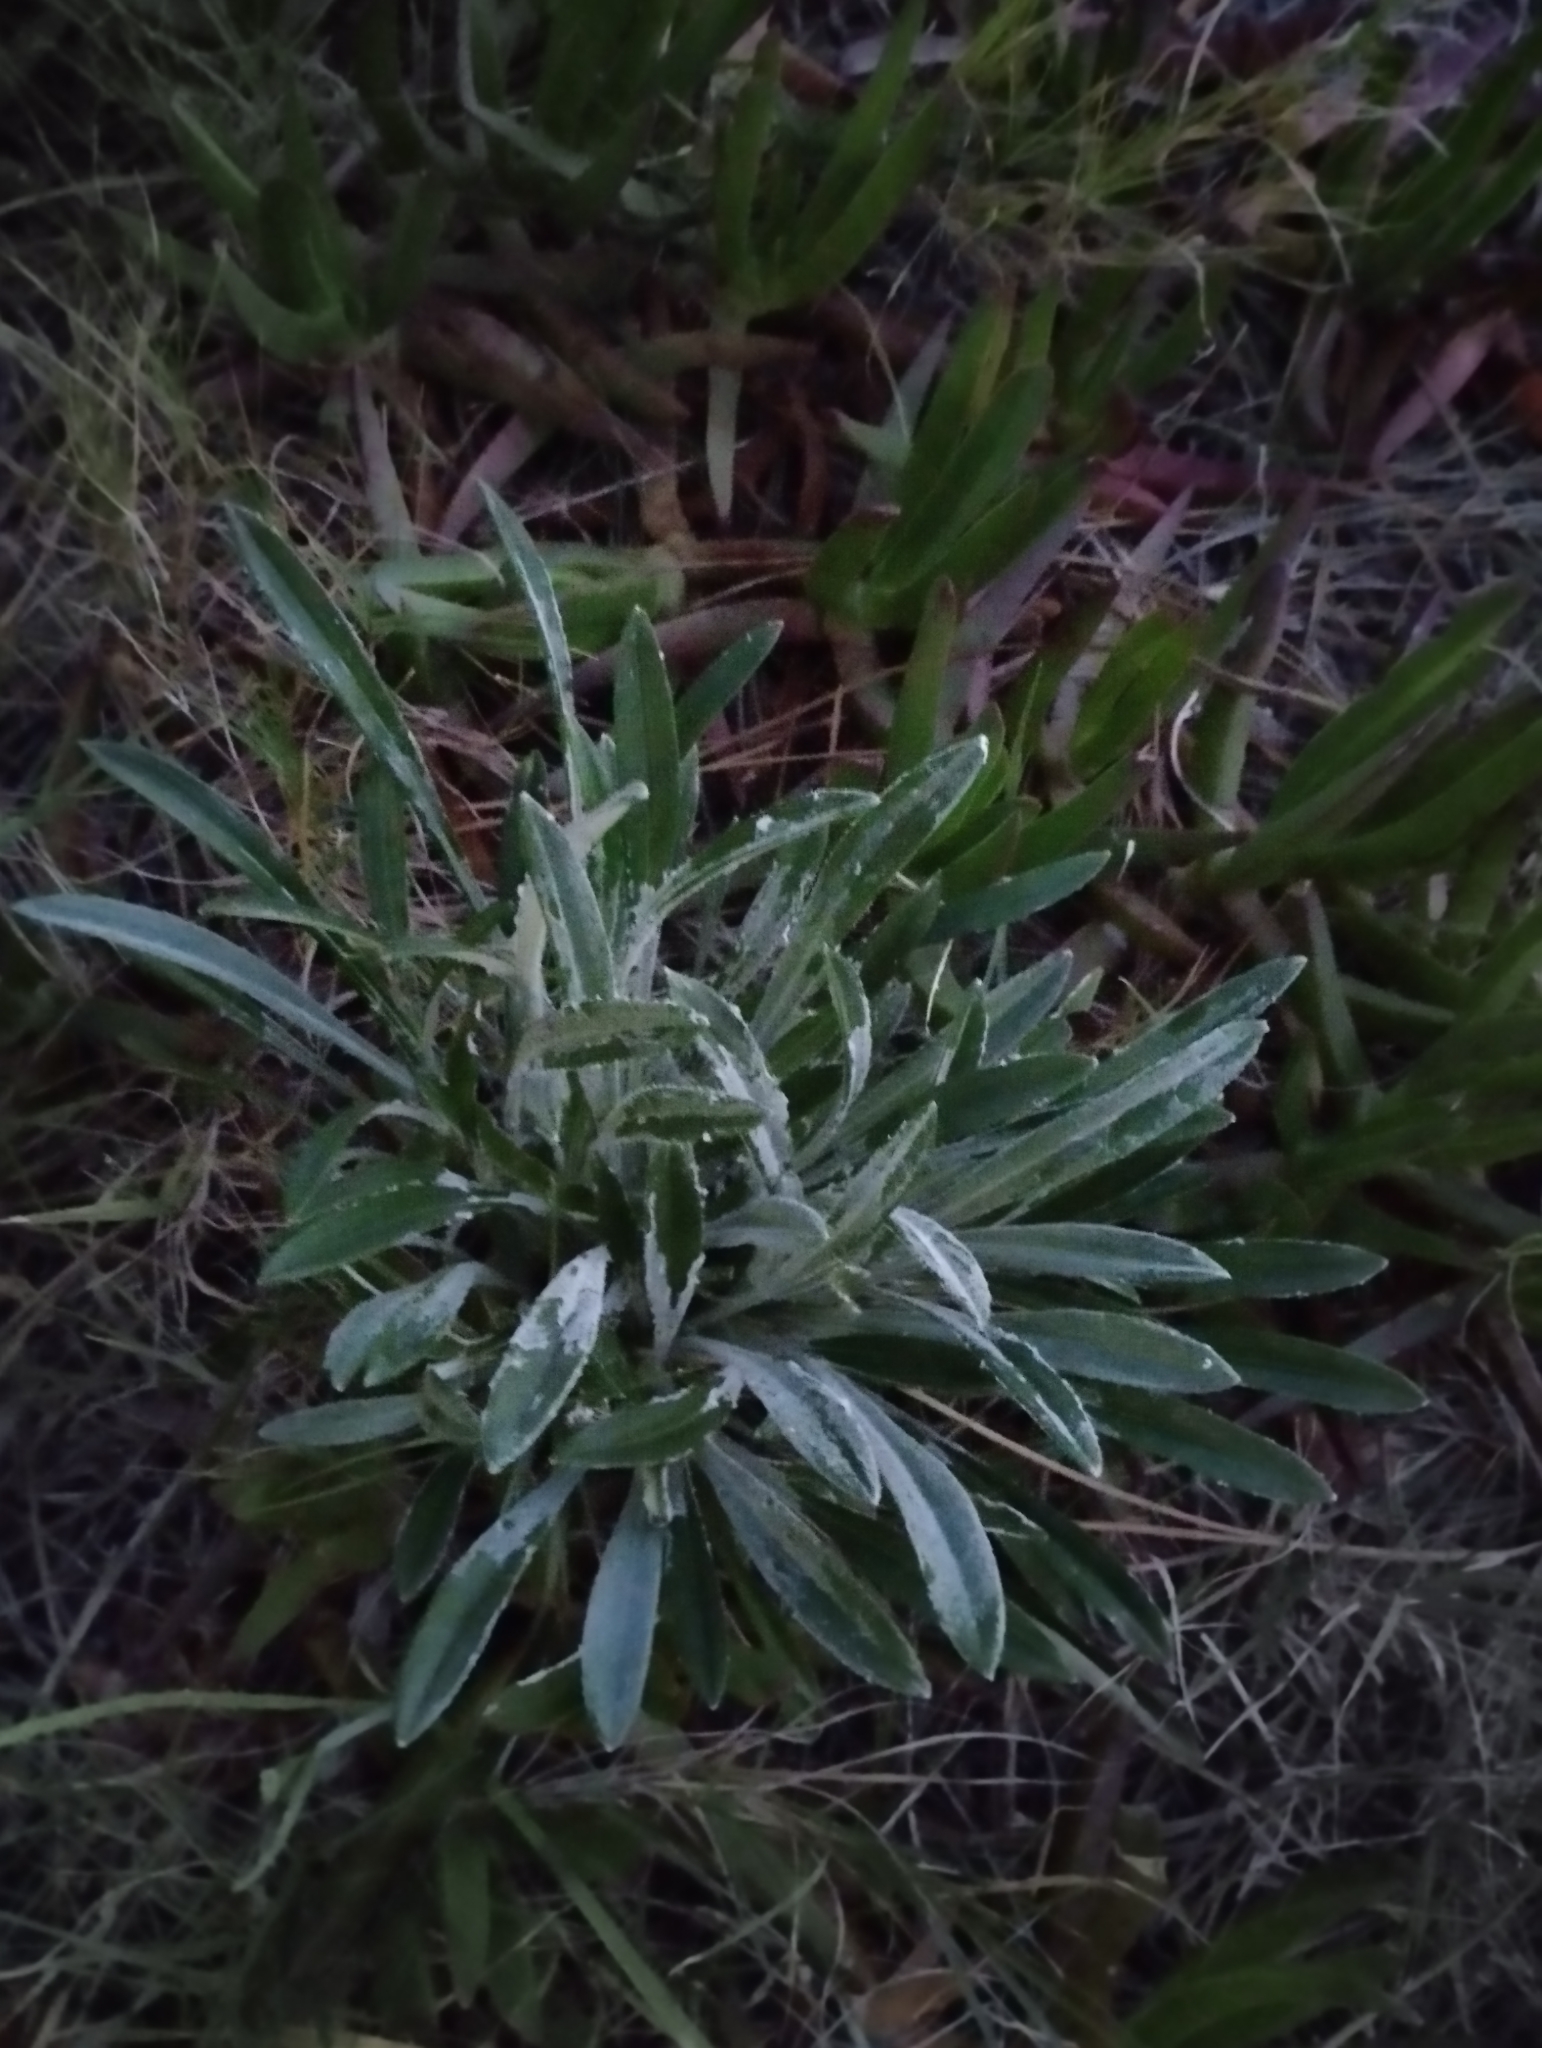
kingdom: Plantae
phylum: Tracheophyta
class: Magnoliopsida
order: Asterales
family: Asteraceae
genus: Gazania
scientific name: Gazania rigens
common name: Treasureflower
